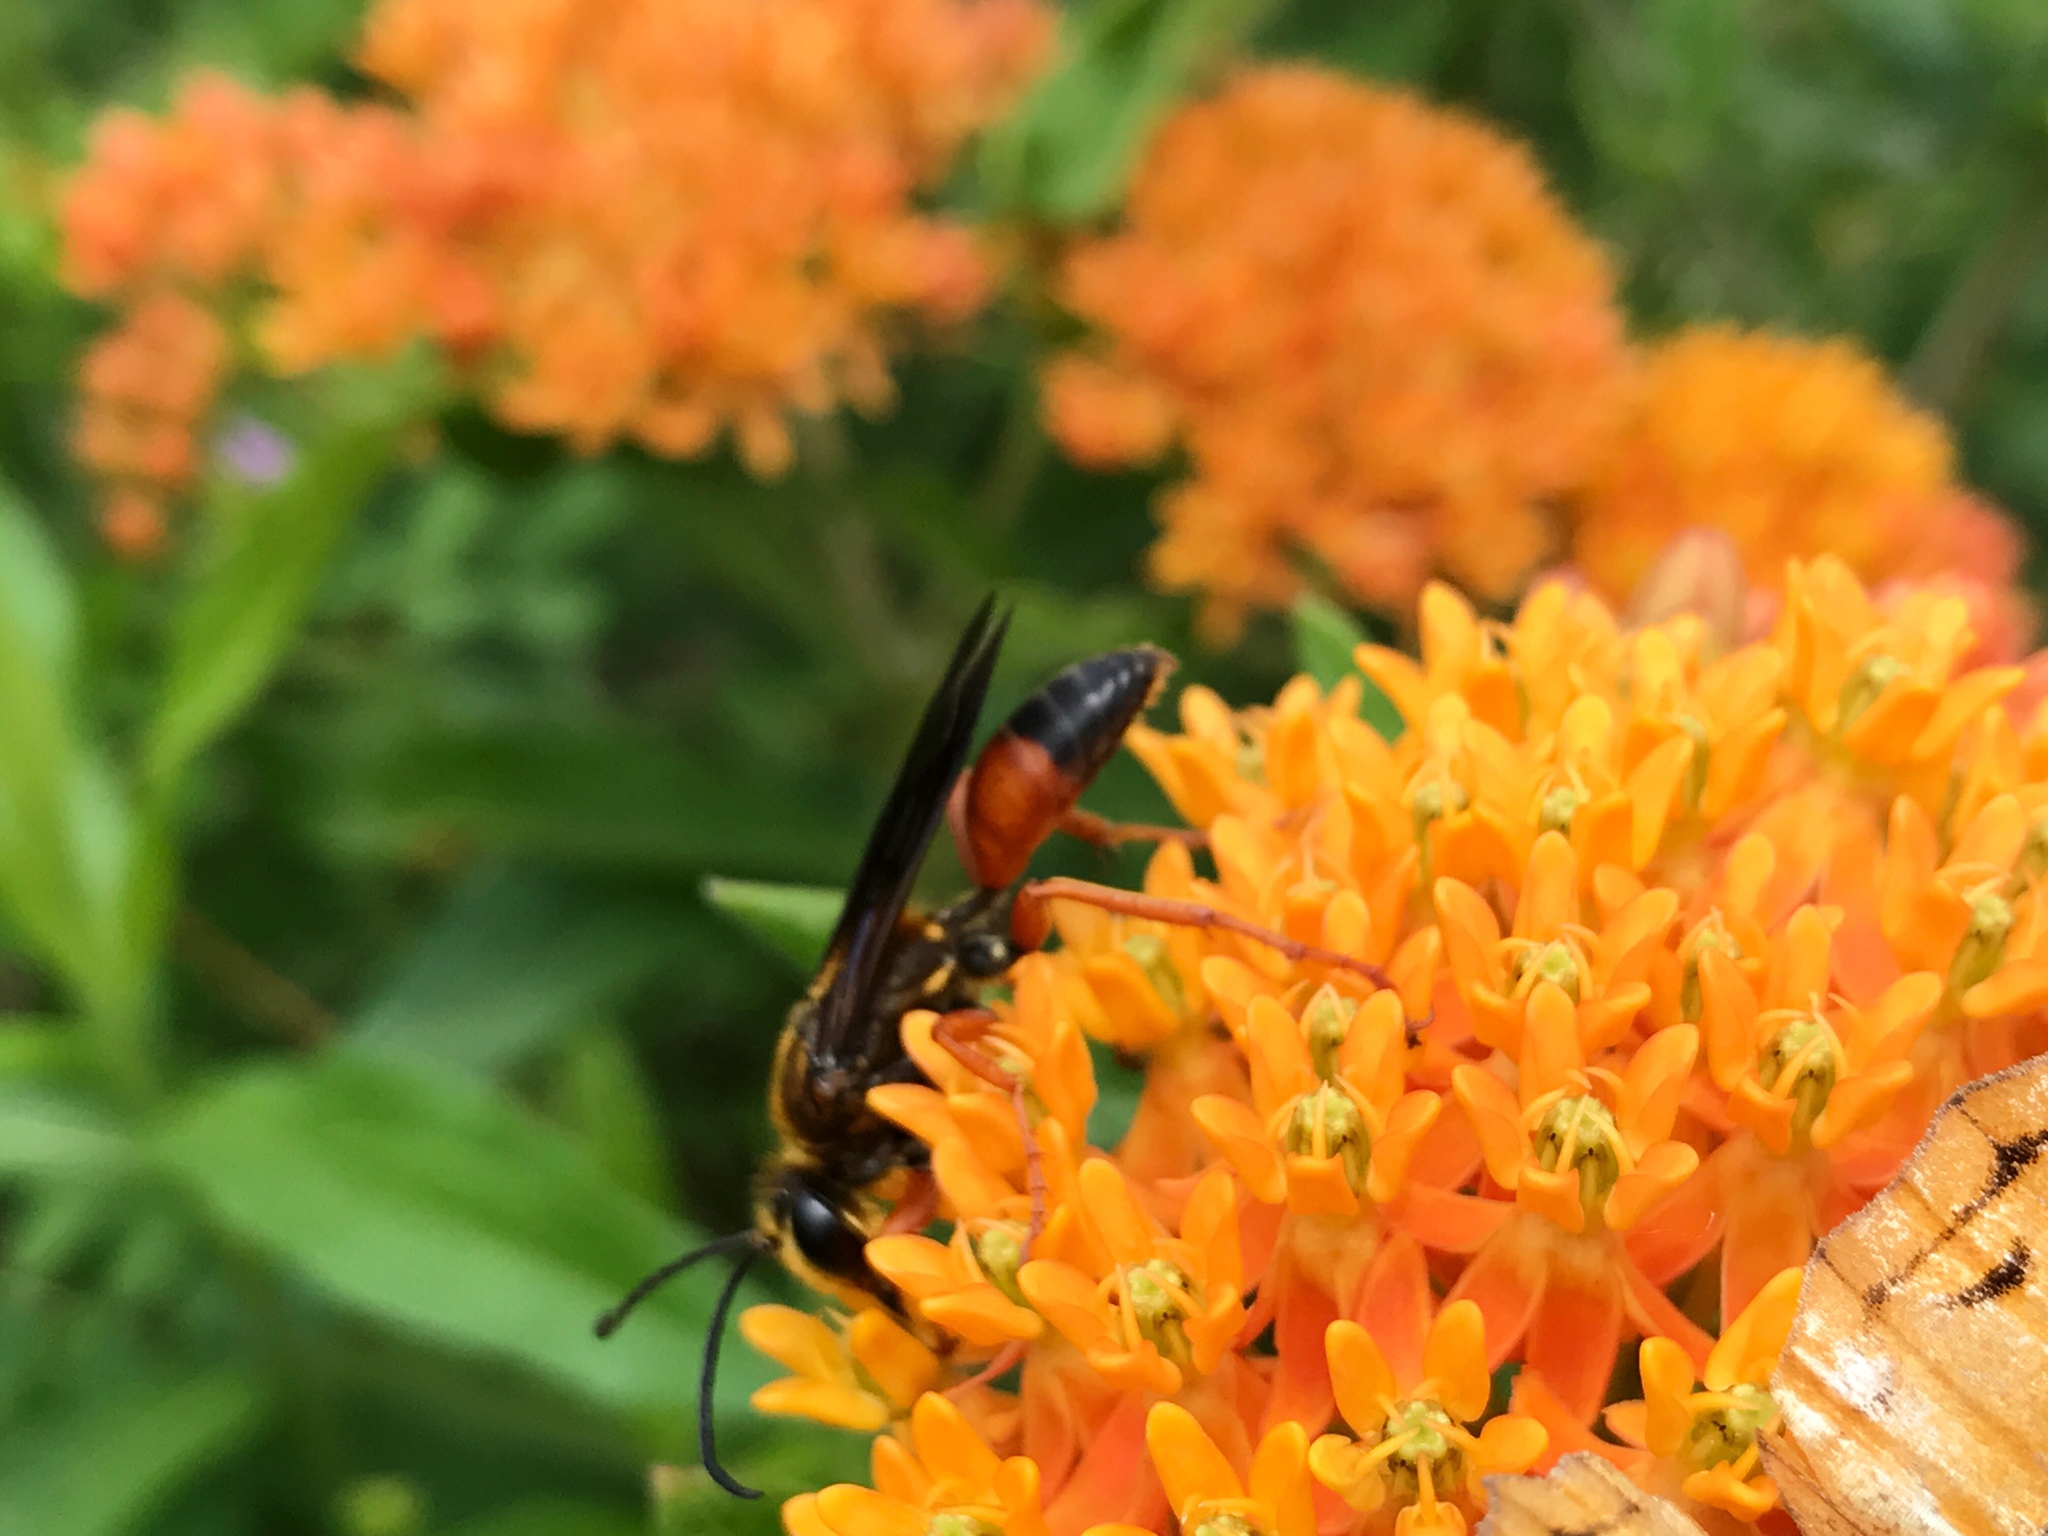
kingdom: Animalia
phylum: Arthropoda
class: Insecta
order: Hymenoptera
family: Sphecidae
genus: Sphex
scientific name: Sphex ichneumoneus
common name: Great golden digger wasp
